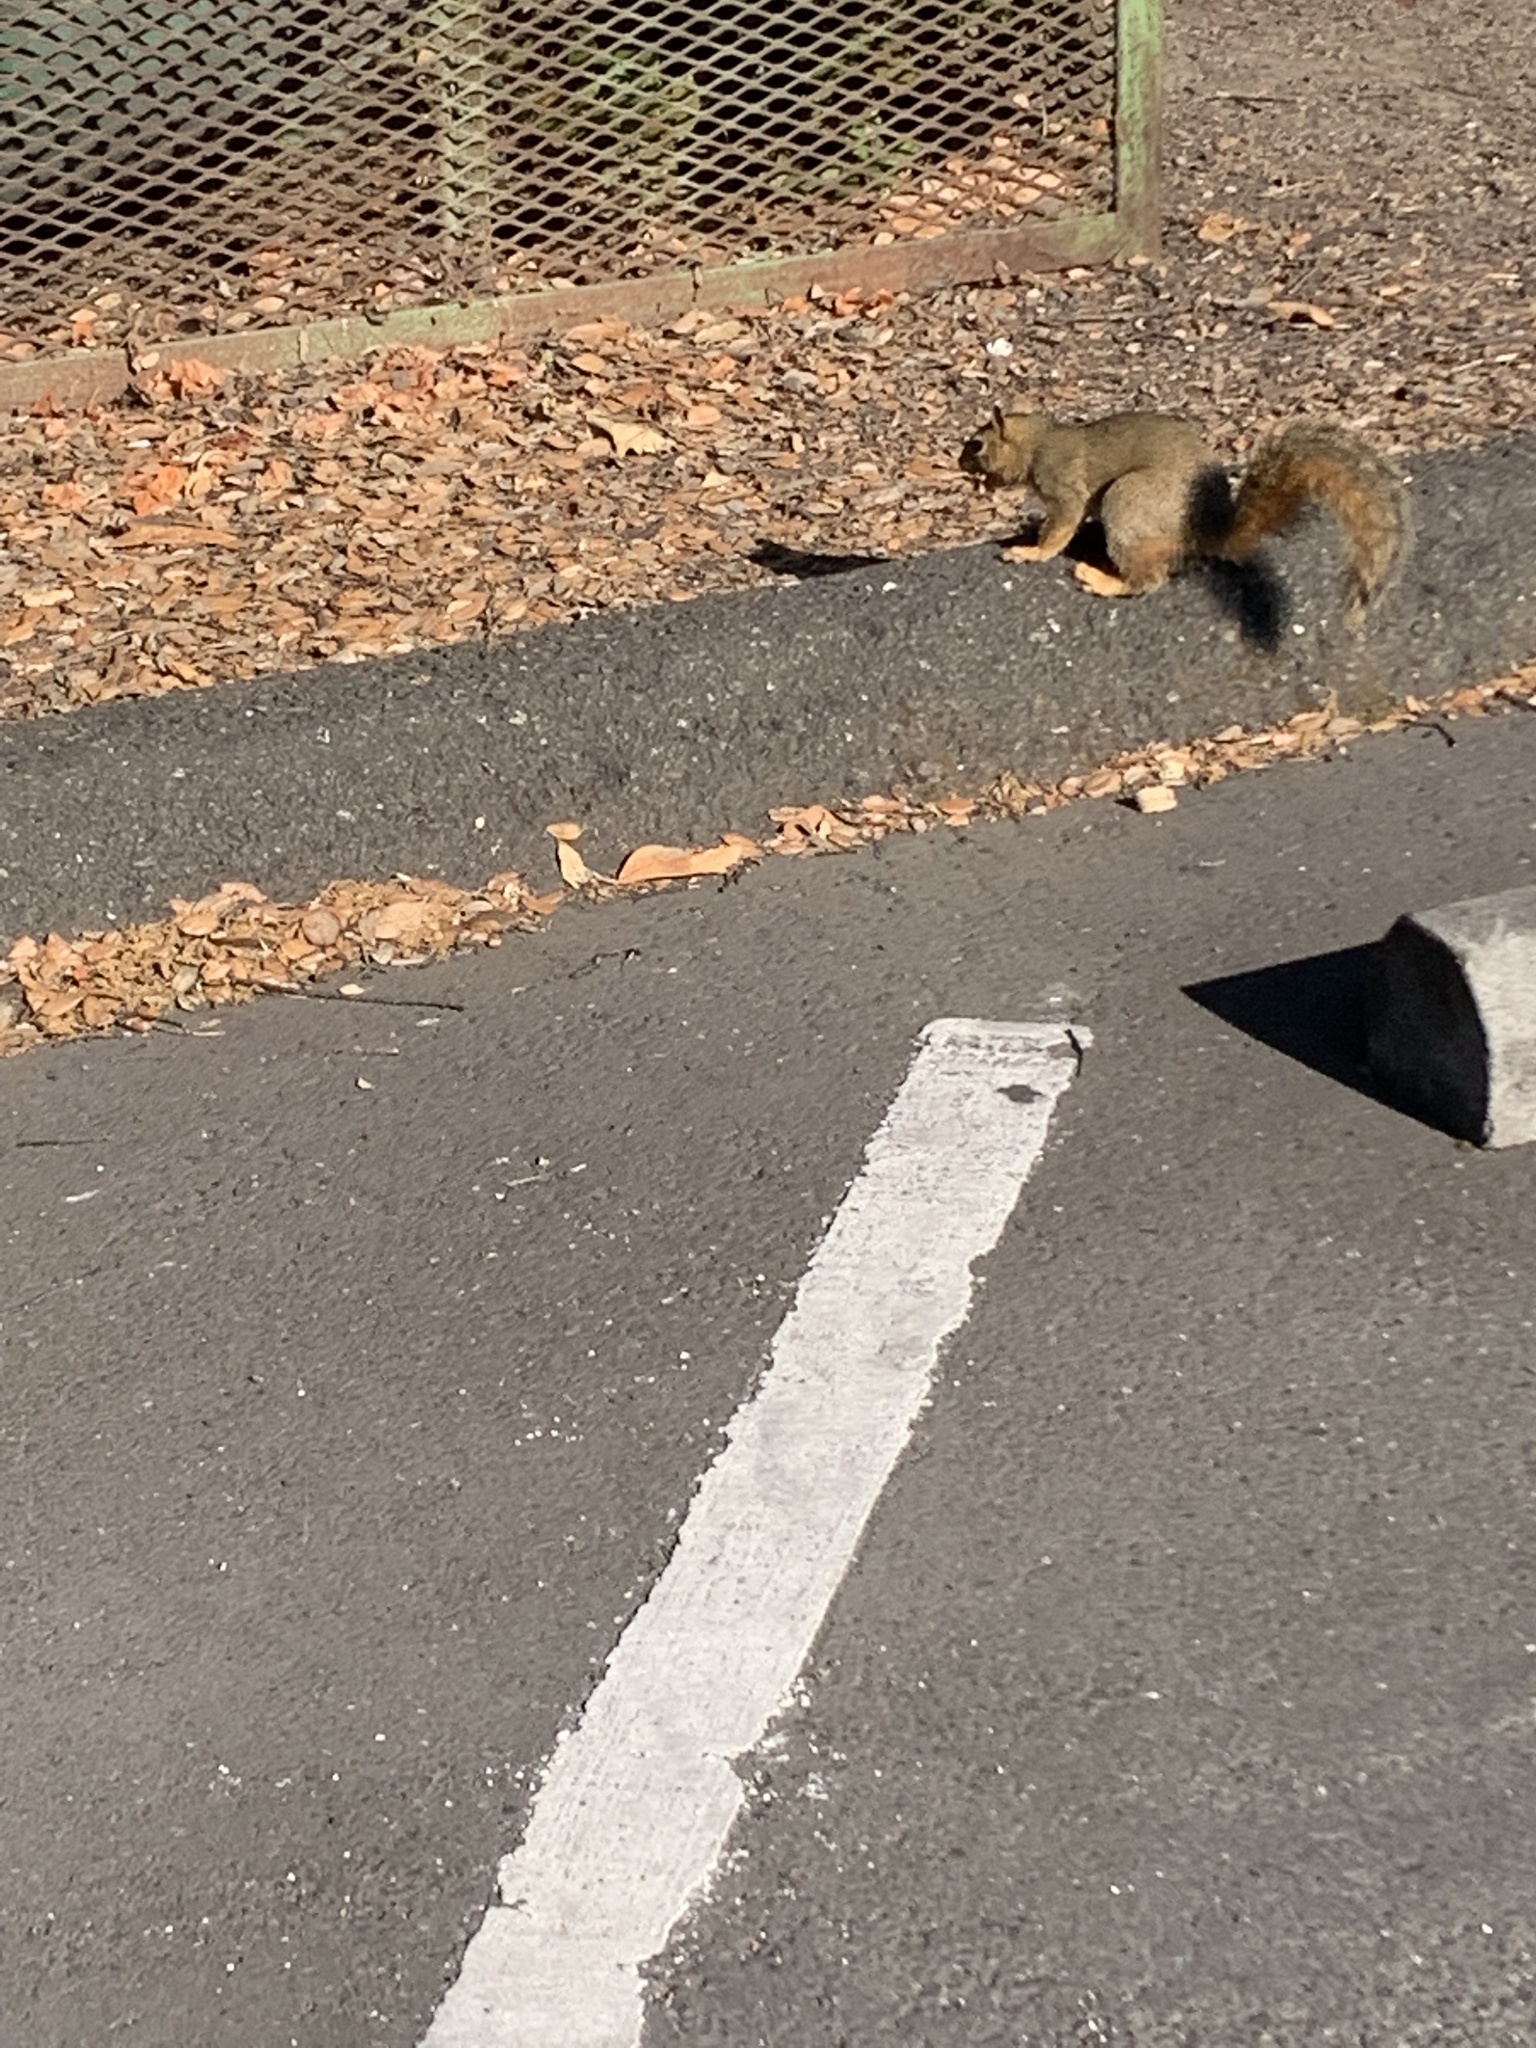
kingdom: Animalia
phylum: Chordata
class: Mammalia
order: Rodentia
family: Sciuridae
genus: Sciurus
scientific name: Sciurus niger
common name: Fox squirrel
